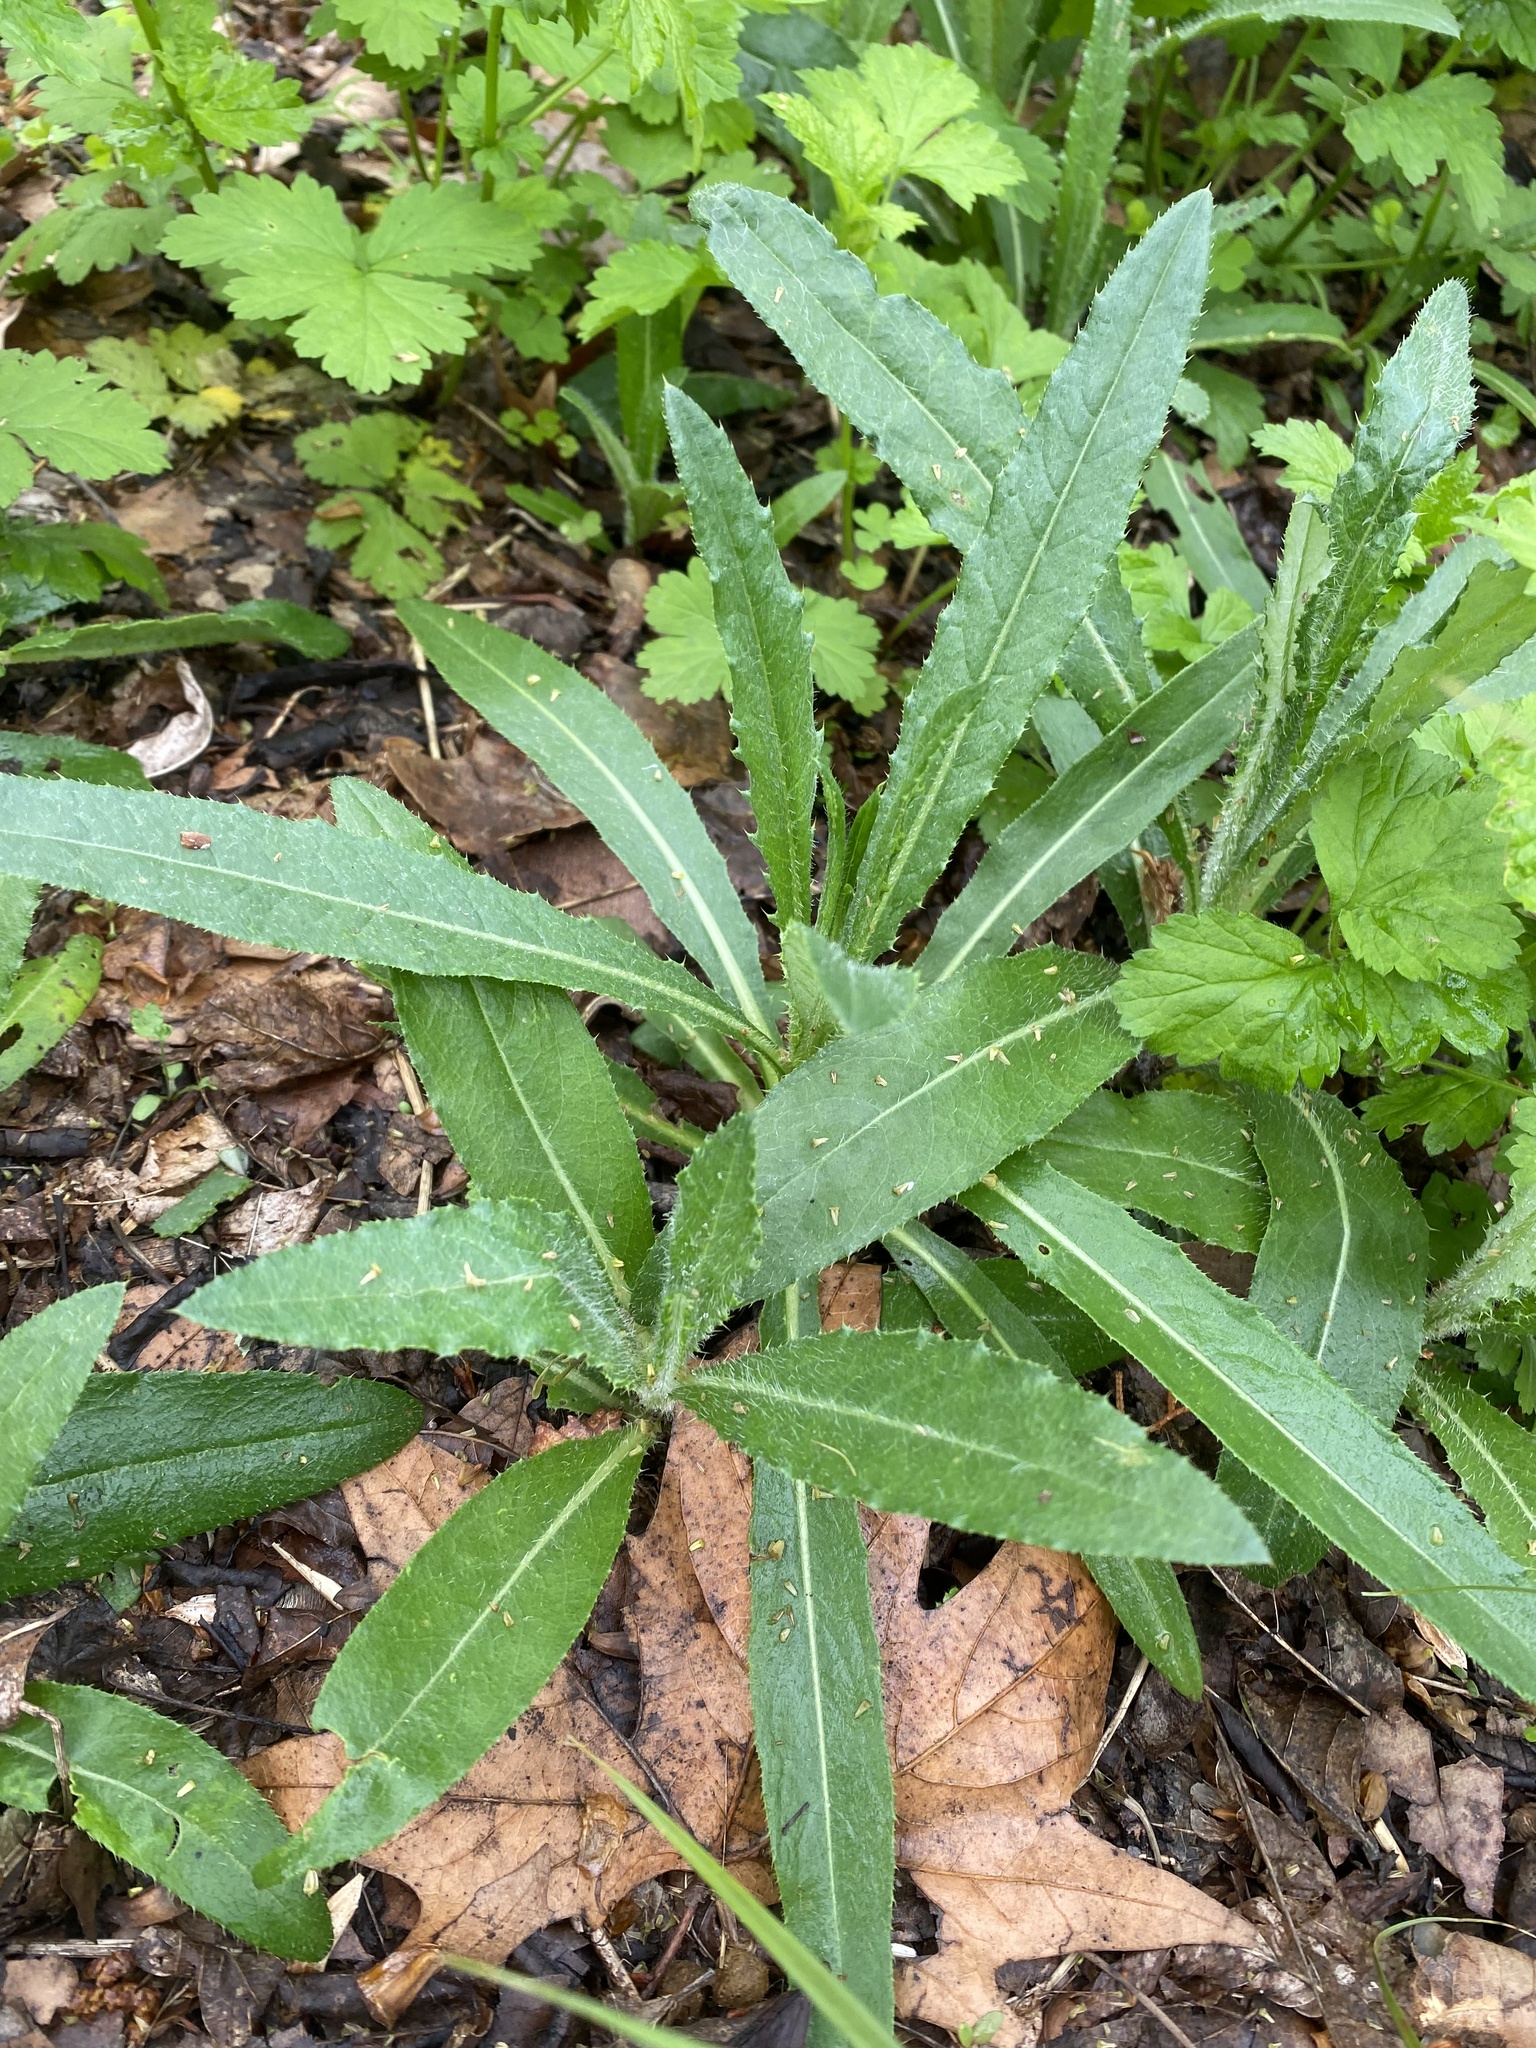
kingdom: Plantae
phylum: Tracheophyta
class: Magnoliopsida
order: Asterales
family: Asteraceae
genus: Cirsium
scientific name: Cirsium arvense
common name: Creeping thistle
